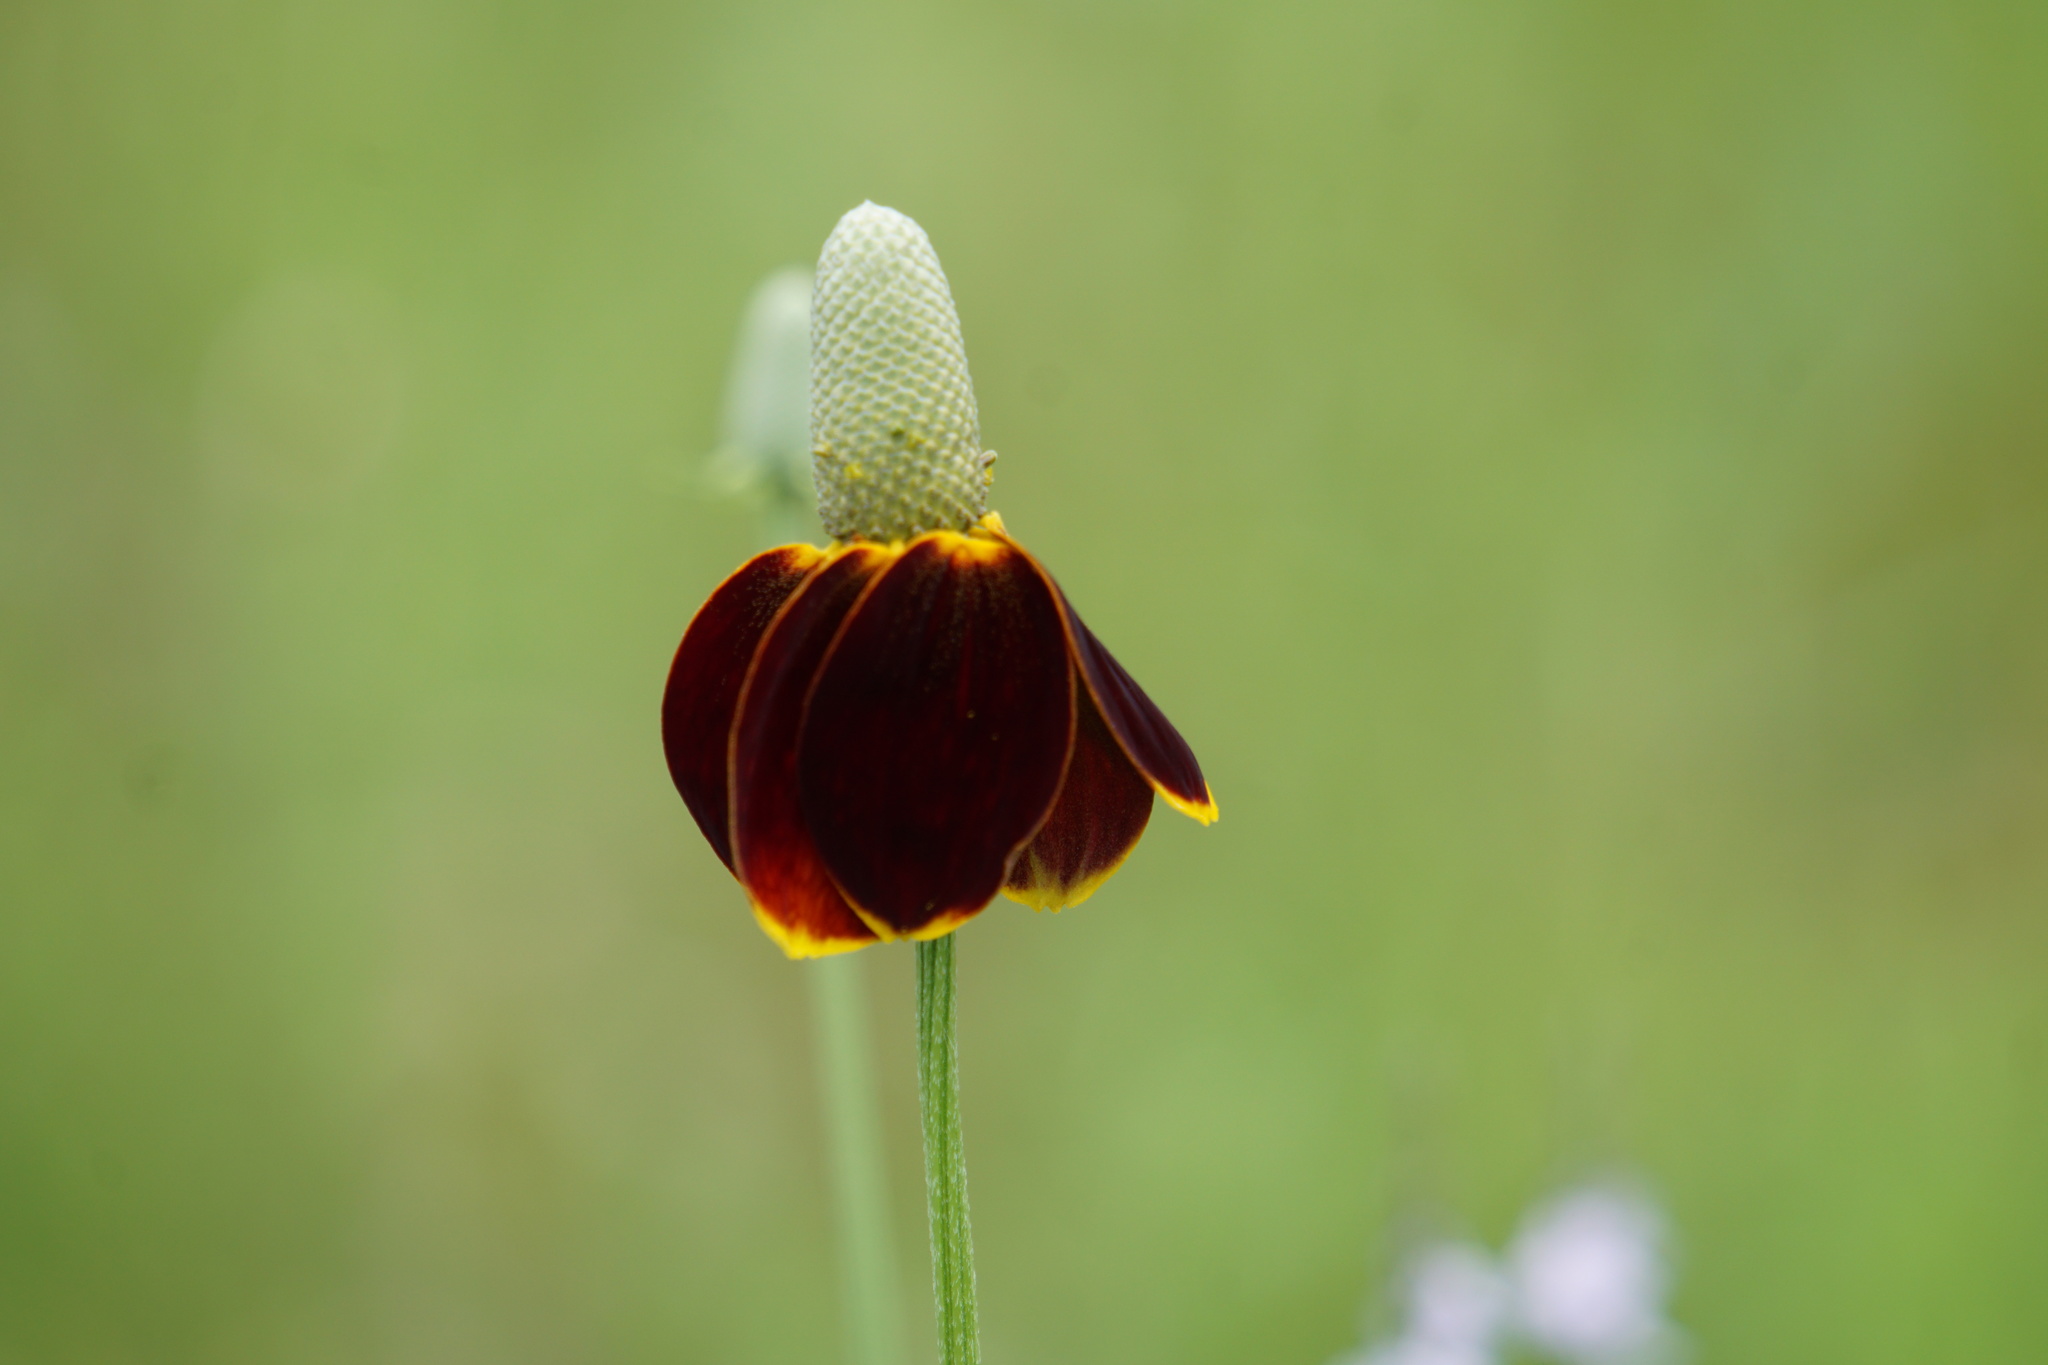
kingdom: Plantae
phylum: Tracheophyta
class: Magnoliopsida
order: Asterales
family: Asteraceae
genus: Ratibida
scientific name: Ratibida columnifera
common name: Prairie coneflower
